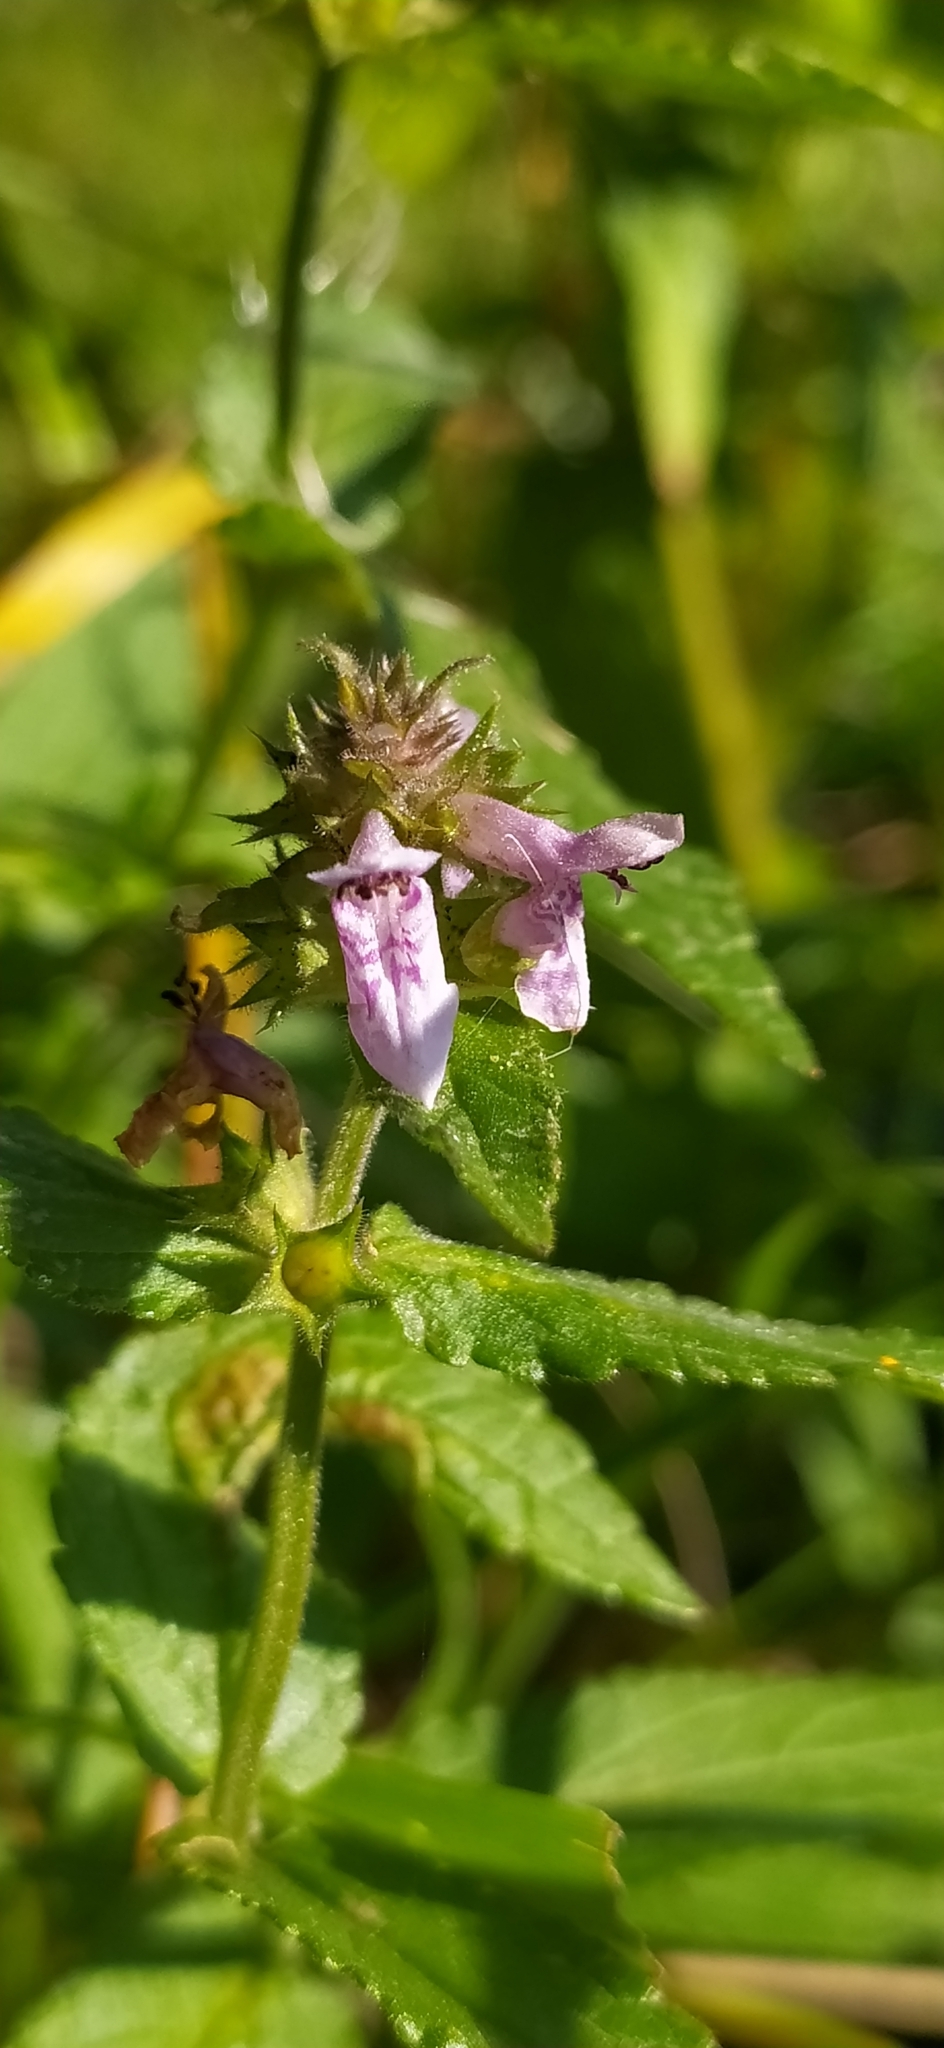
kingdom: Plantae
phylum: Tracheophyta
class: Magnoliopsida
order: Lamiales
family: Lamiaceae
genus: Stachys
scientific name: Stachys palustris
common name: Marsh woundwort
